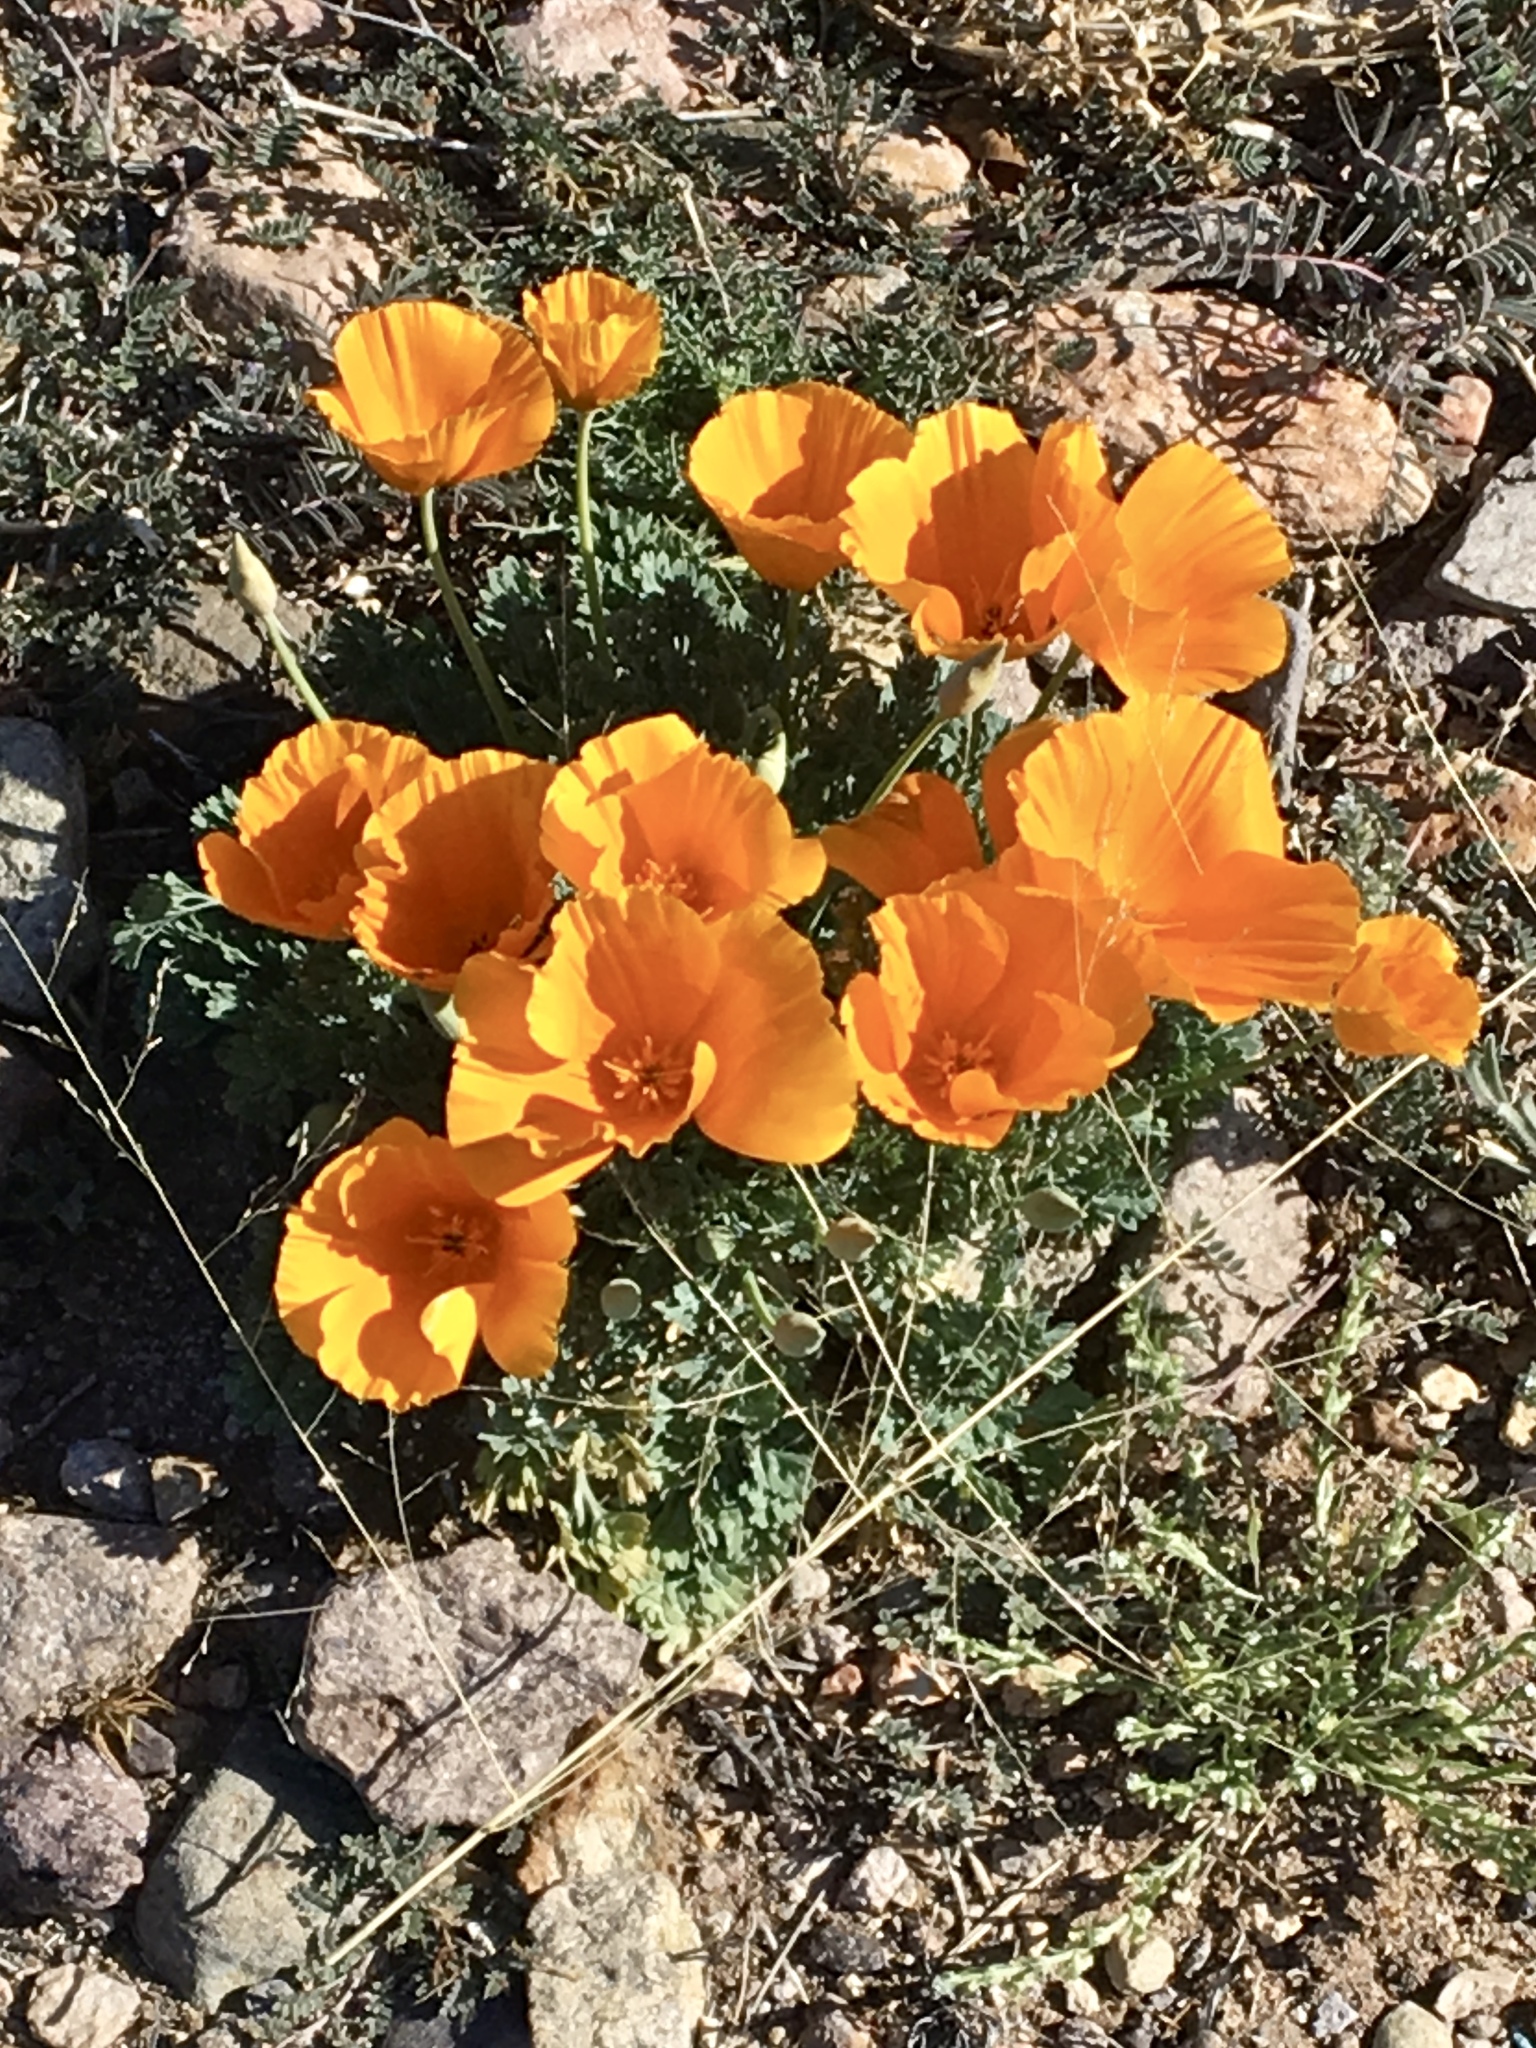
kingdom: Plantae
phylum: Tracheophyta
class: Magnoliopsida
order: Ranunculales
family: Papaveraceae
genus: Eschscholzia
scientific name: Eschscholzia californica
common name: California poppy
